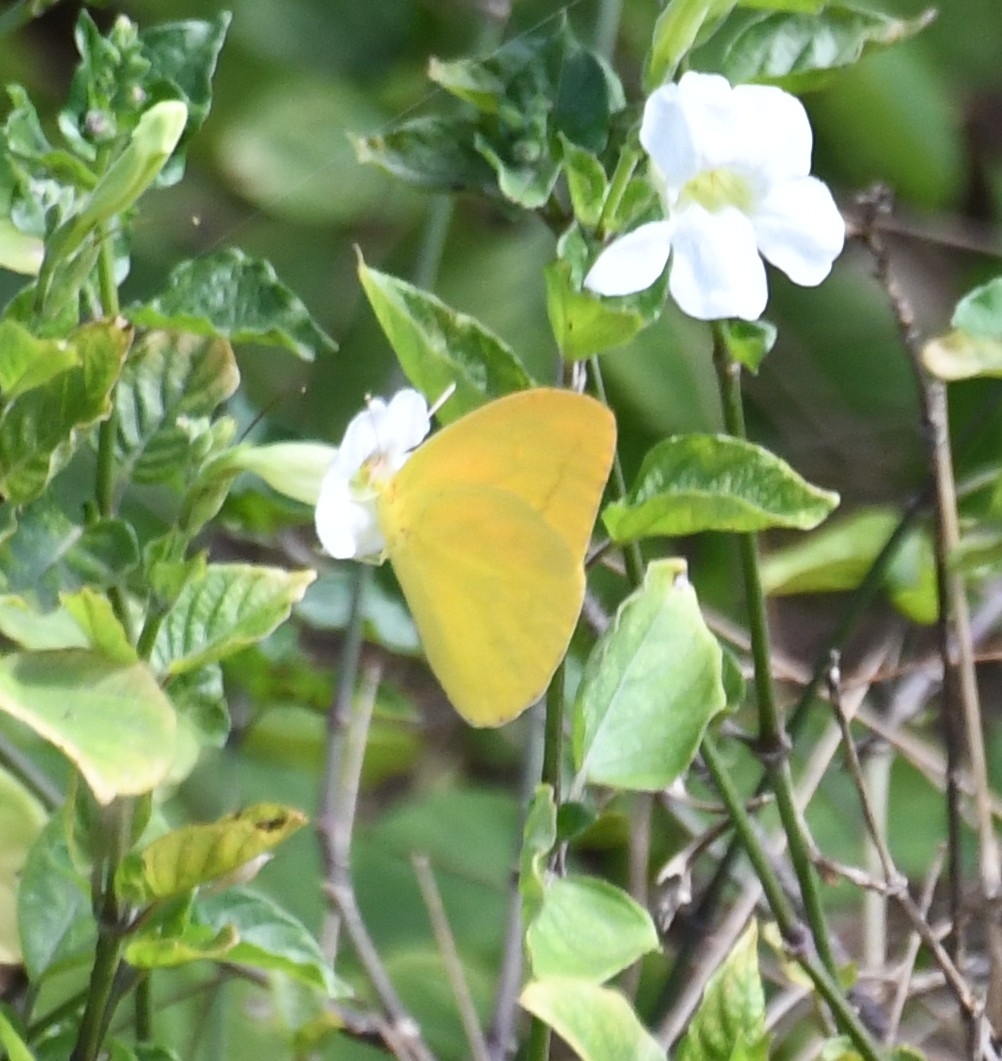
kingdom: Animalia
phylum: Arthropoda
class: Insecta
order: Lepidoptera
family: Pieridae
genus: Phoebis
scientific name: Phoebis agarithe
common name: Large orange sulphur
